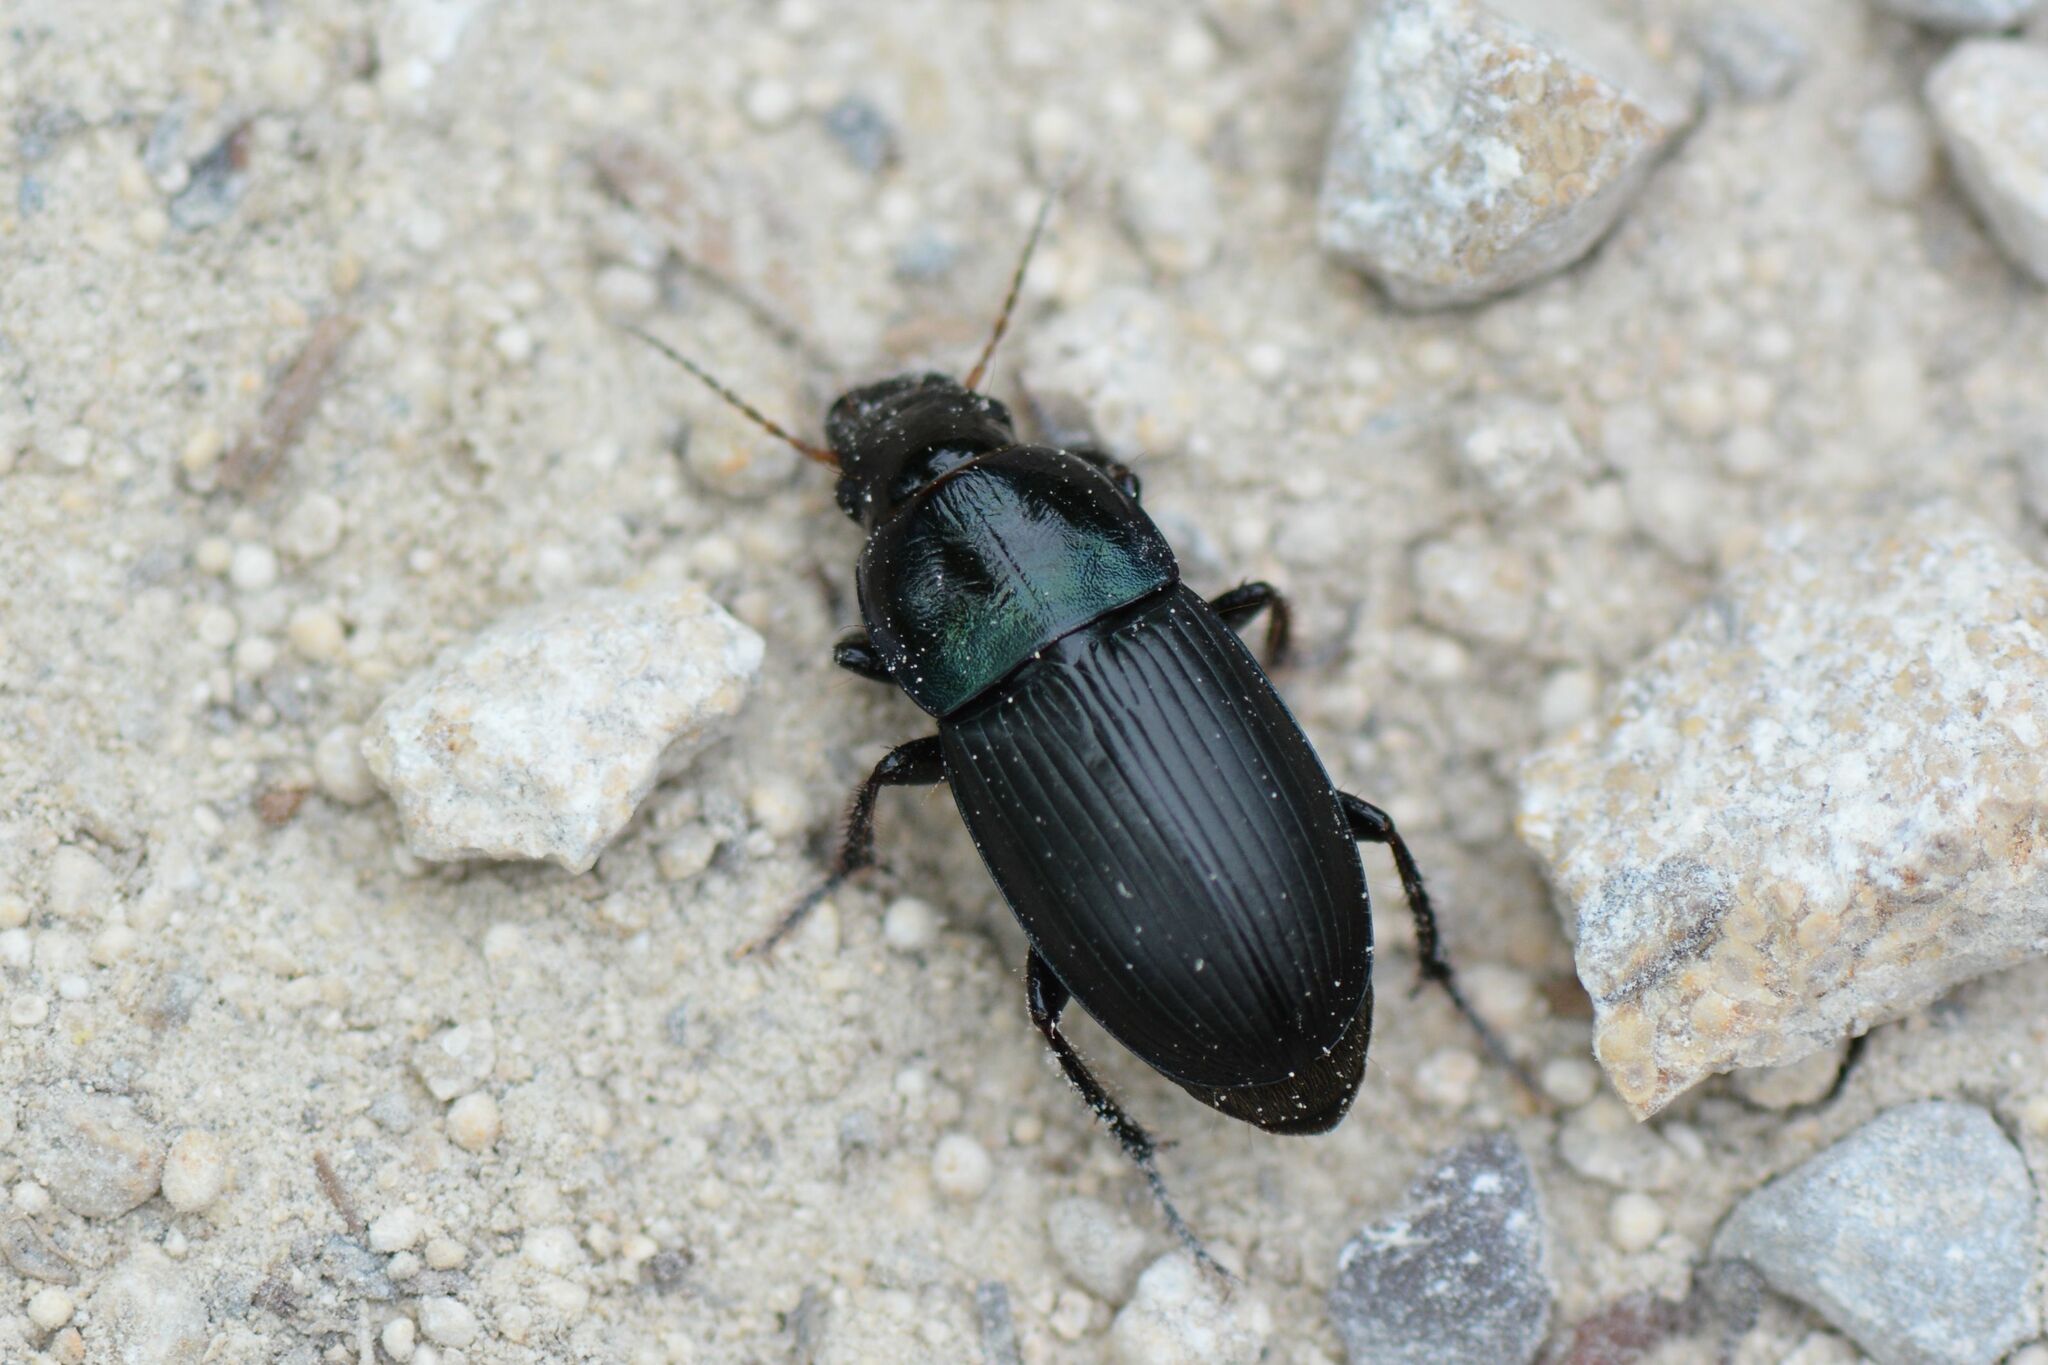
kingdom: Animalia
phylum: Arthropoda
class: Insecta
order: Coleoptera
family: Carabidae
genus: Harpalus
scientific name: Harpalus dimidiatus
